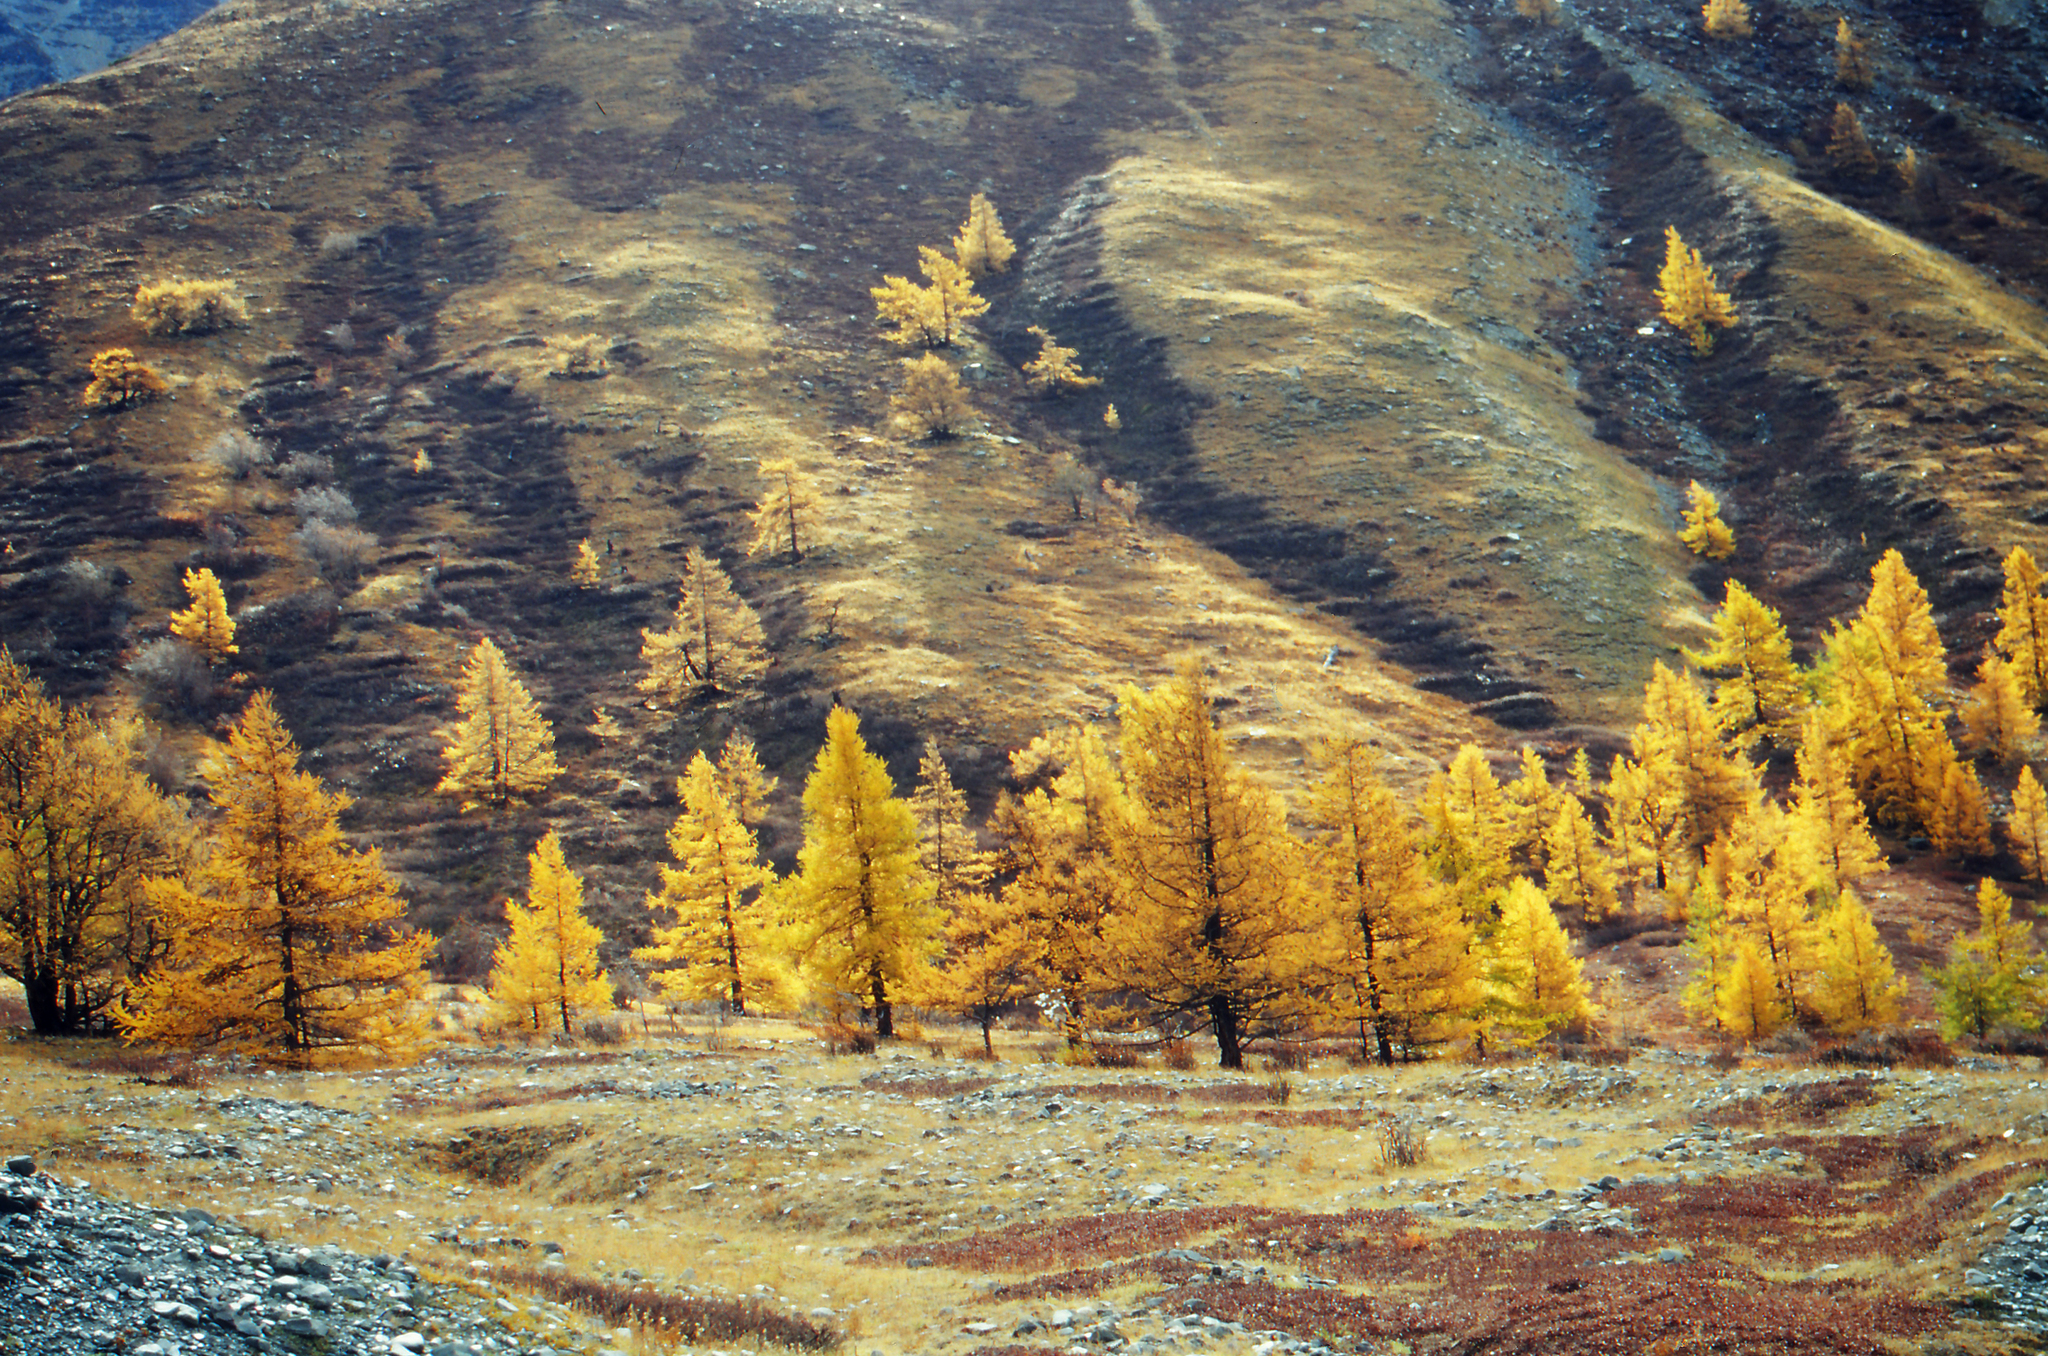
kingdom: Plantae
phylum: Tracheophyta
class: Pinopsida
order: Pinales
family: Pinaceae
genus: Larix
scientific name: Larix sibirica
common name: Siberian larch
